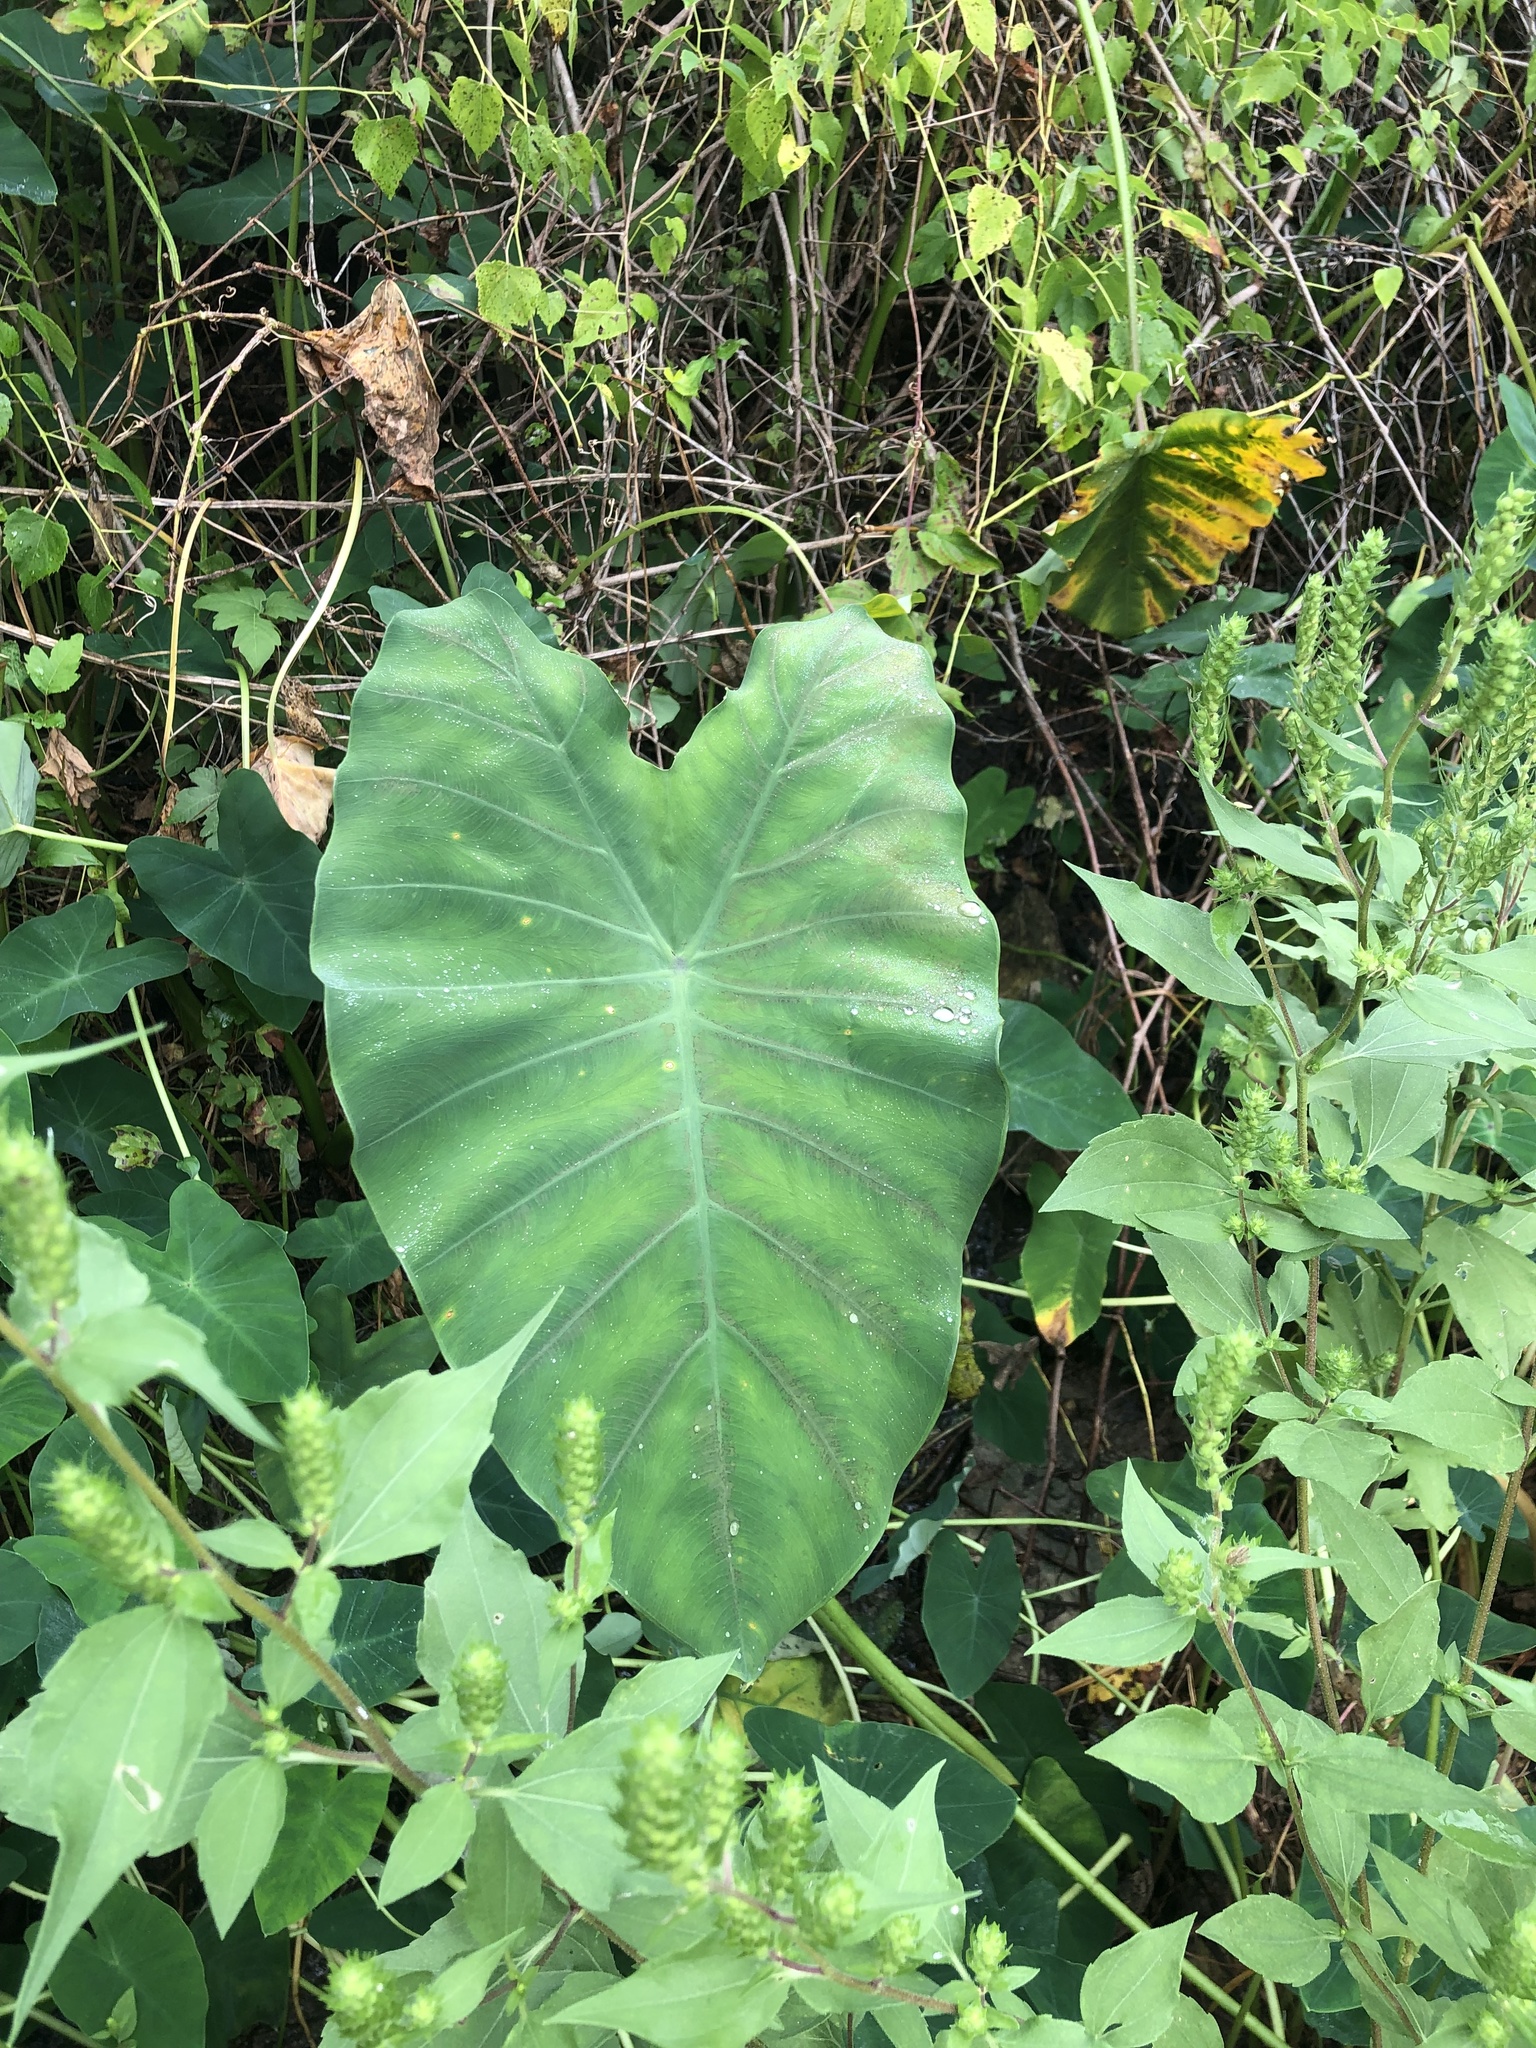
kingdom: Plantae
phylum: Tracheophyta
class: Liliopsida
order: Alismatales
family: Araceae
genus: Colocasia
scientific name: Colocasia esculenta
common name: Taro
